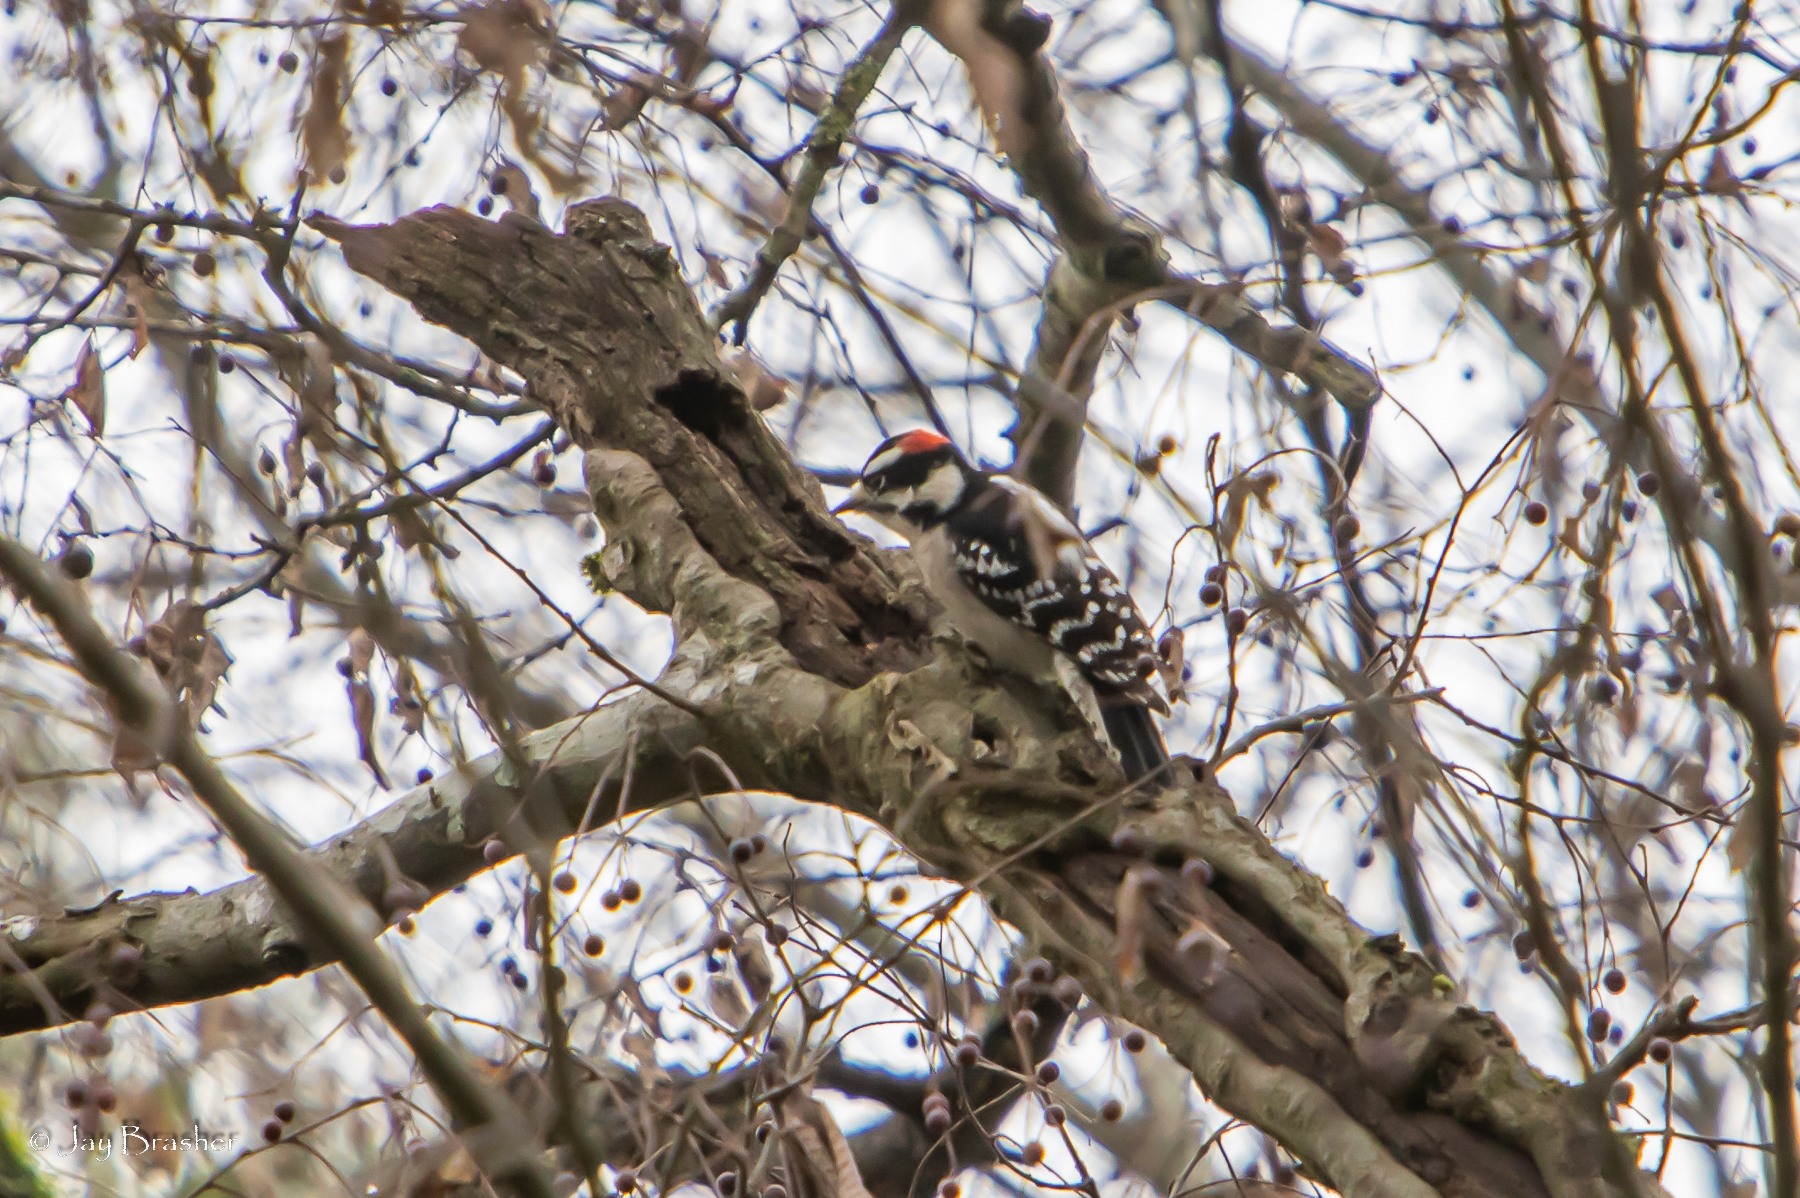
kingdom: Animalia
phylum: Chordata
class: Aves
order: Piciformes
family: Picidae
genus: Dryobates
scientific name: Dryobates pubescens
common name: Downy woodpecker
